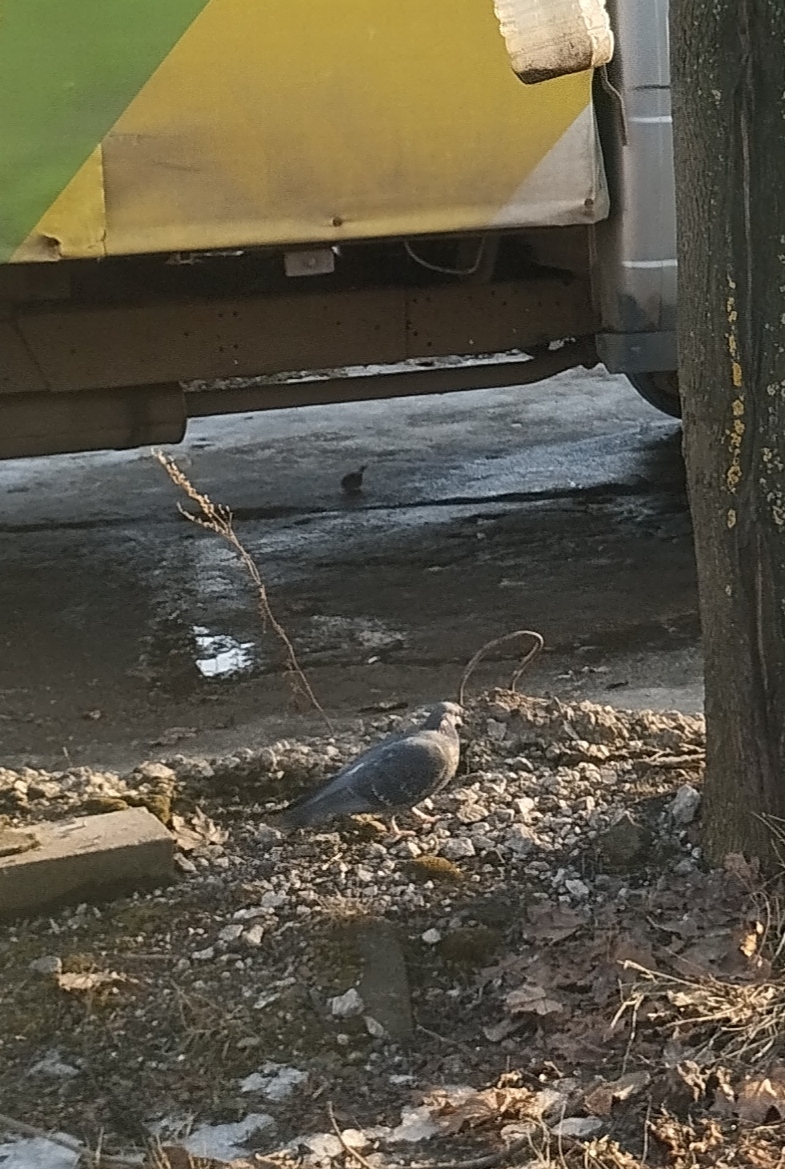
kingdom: Animalia
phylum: Chordata
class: Aves
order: Columbiformes
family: Columbidae
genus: Columba
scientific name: Columba livia
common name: Rock pigeon
